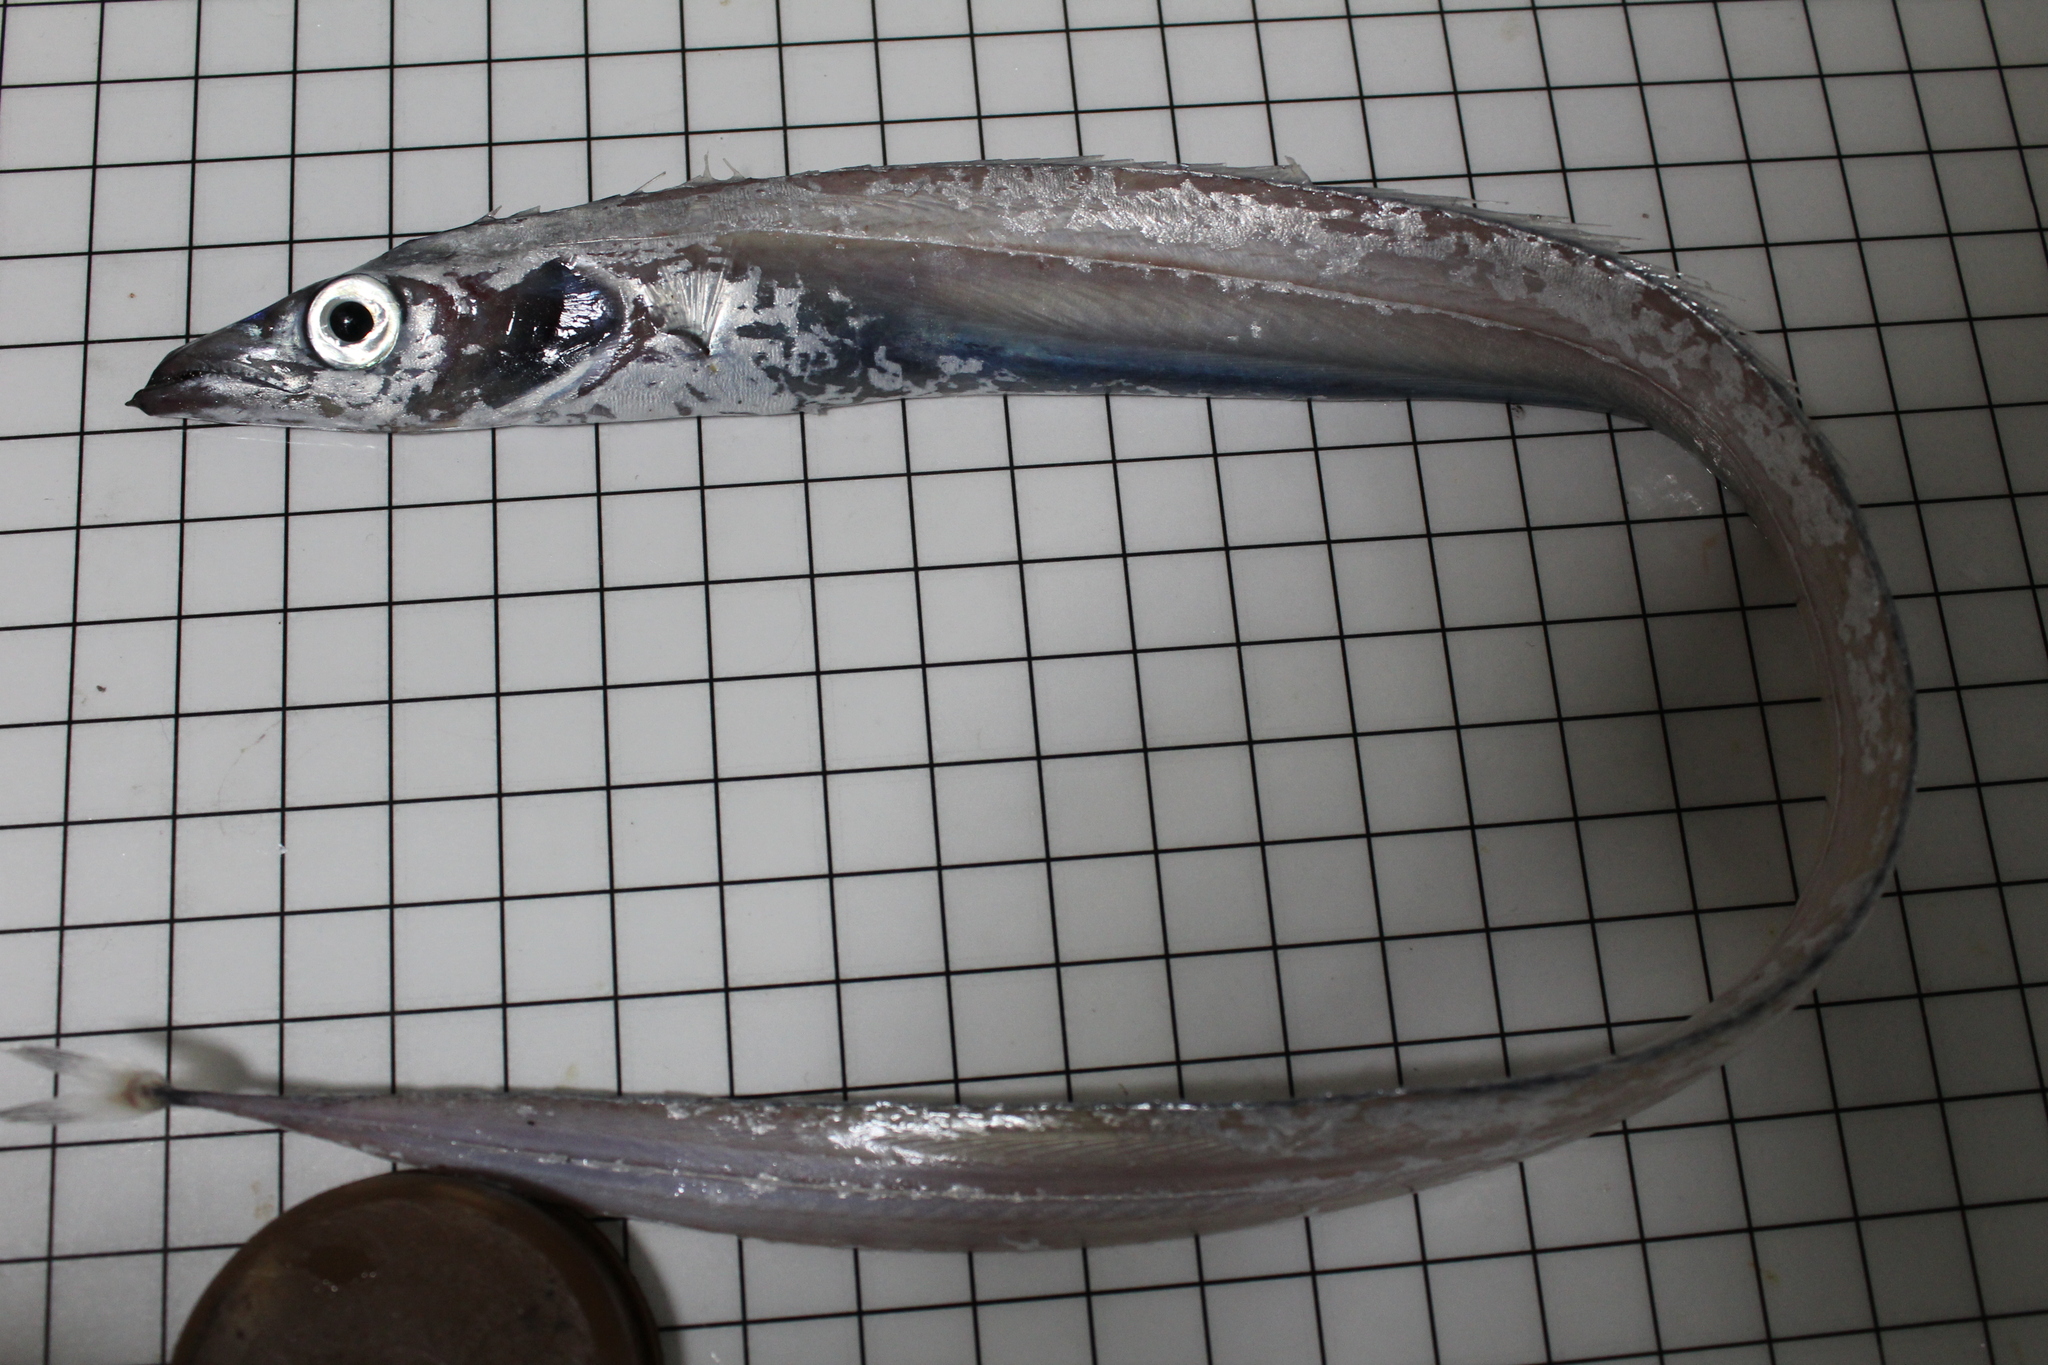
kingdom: Animalia
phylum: Chordata
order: Perciformes
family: Trichiuridae
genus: Lepidopus
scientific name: Lepidopus caudatus
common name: Silver scabbardfish
